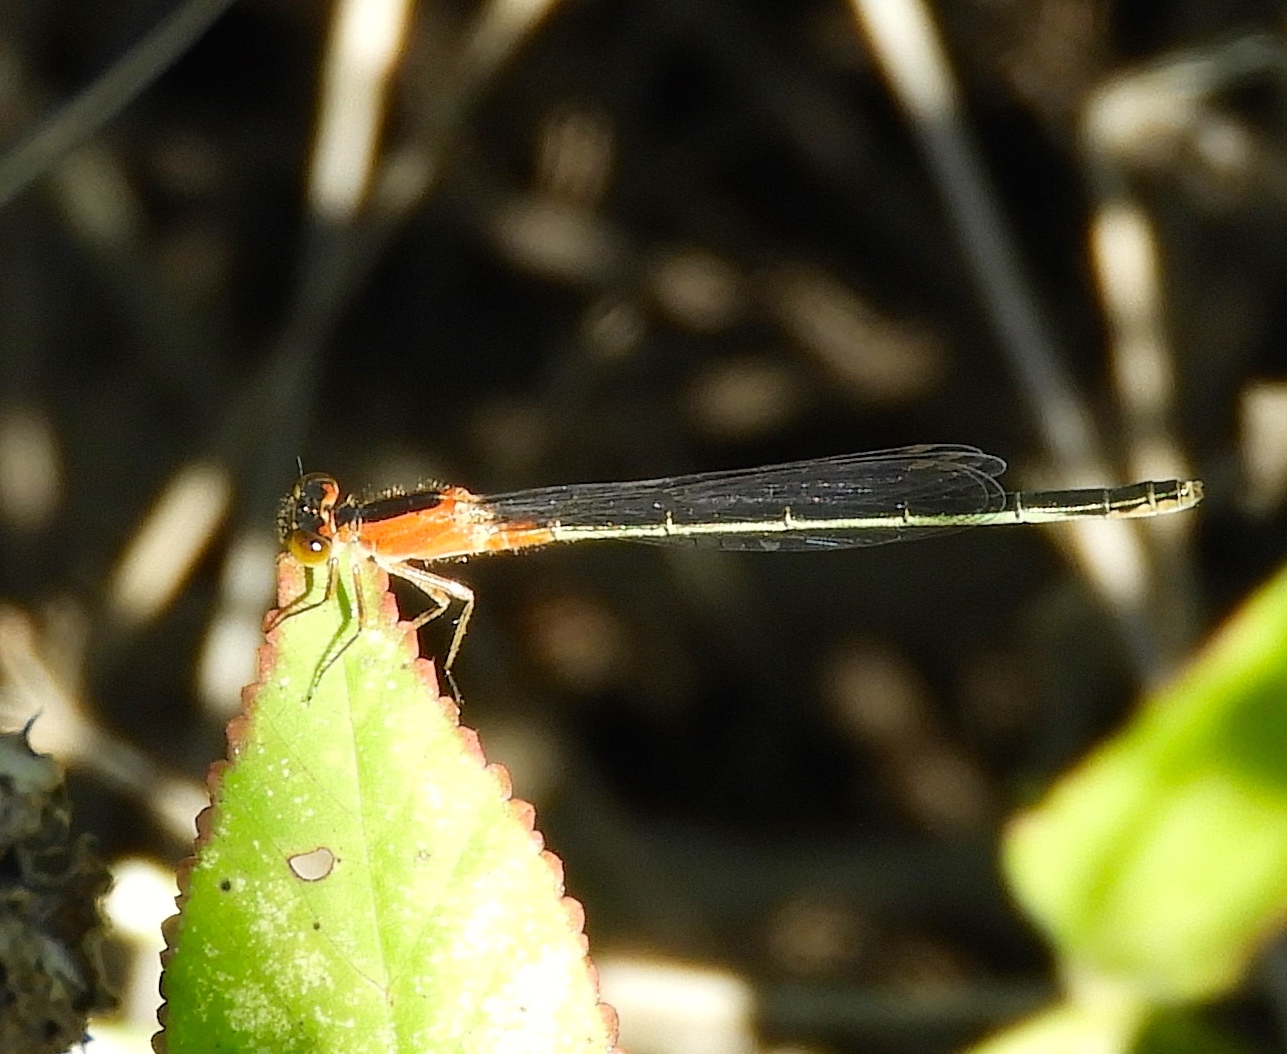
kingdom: Animalia
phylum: Arthropoda
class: Insecta
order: Odonata
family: Coenagrionidae
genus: Ischnura
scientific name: Ischnura ramburii
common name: Rambur's forktail
